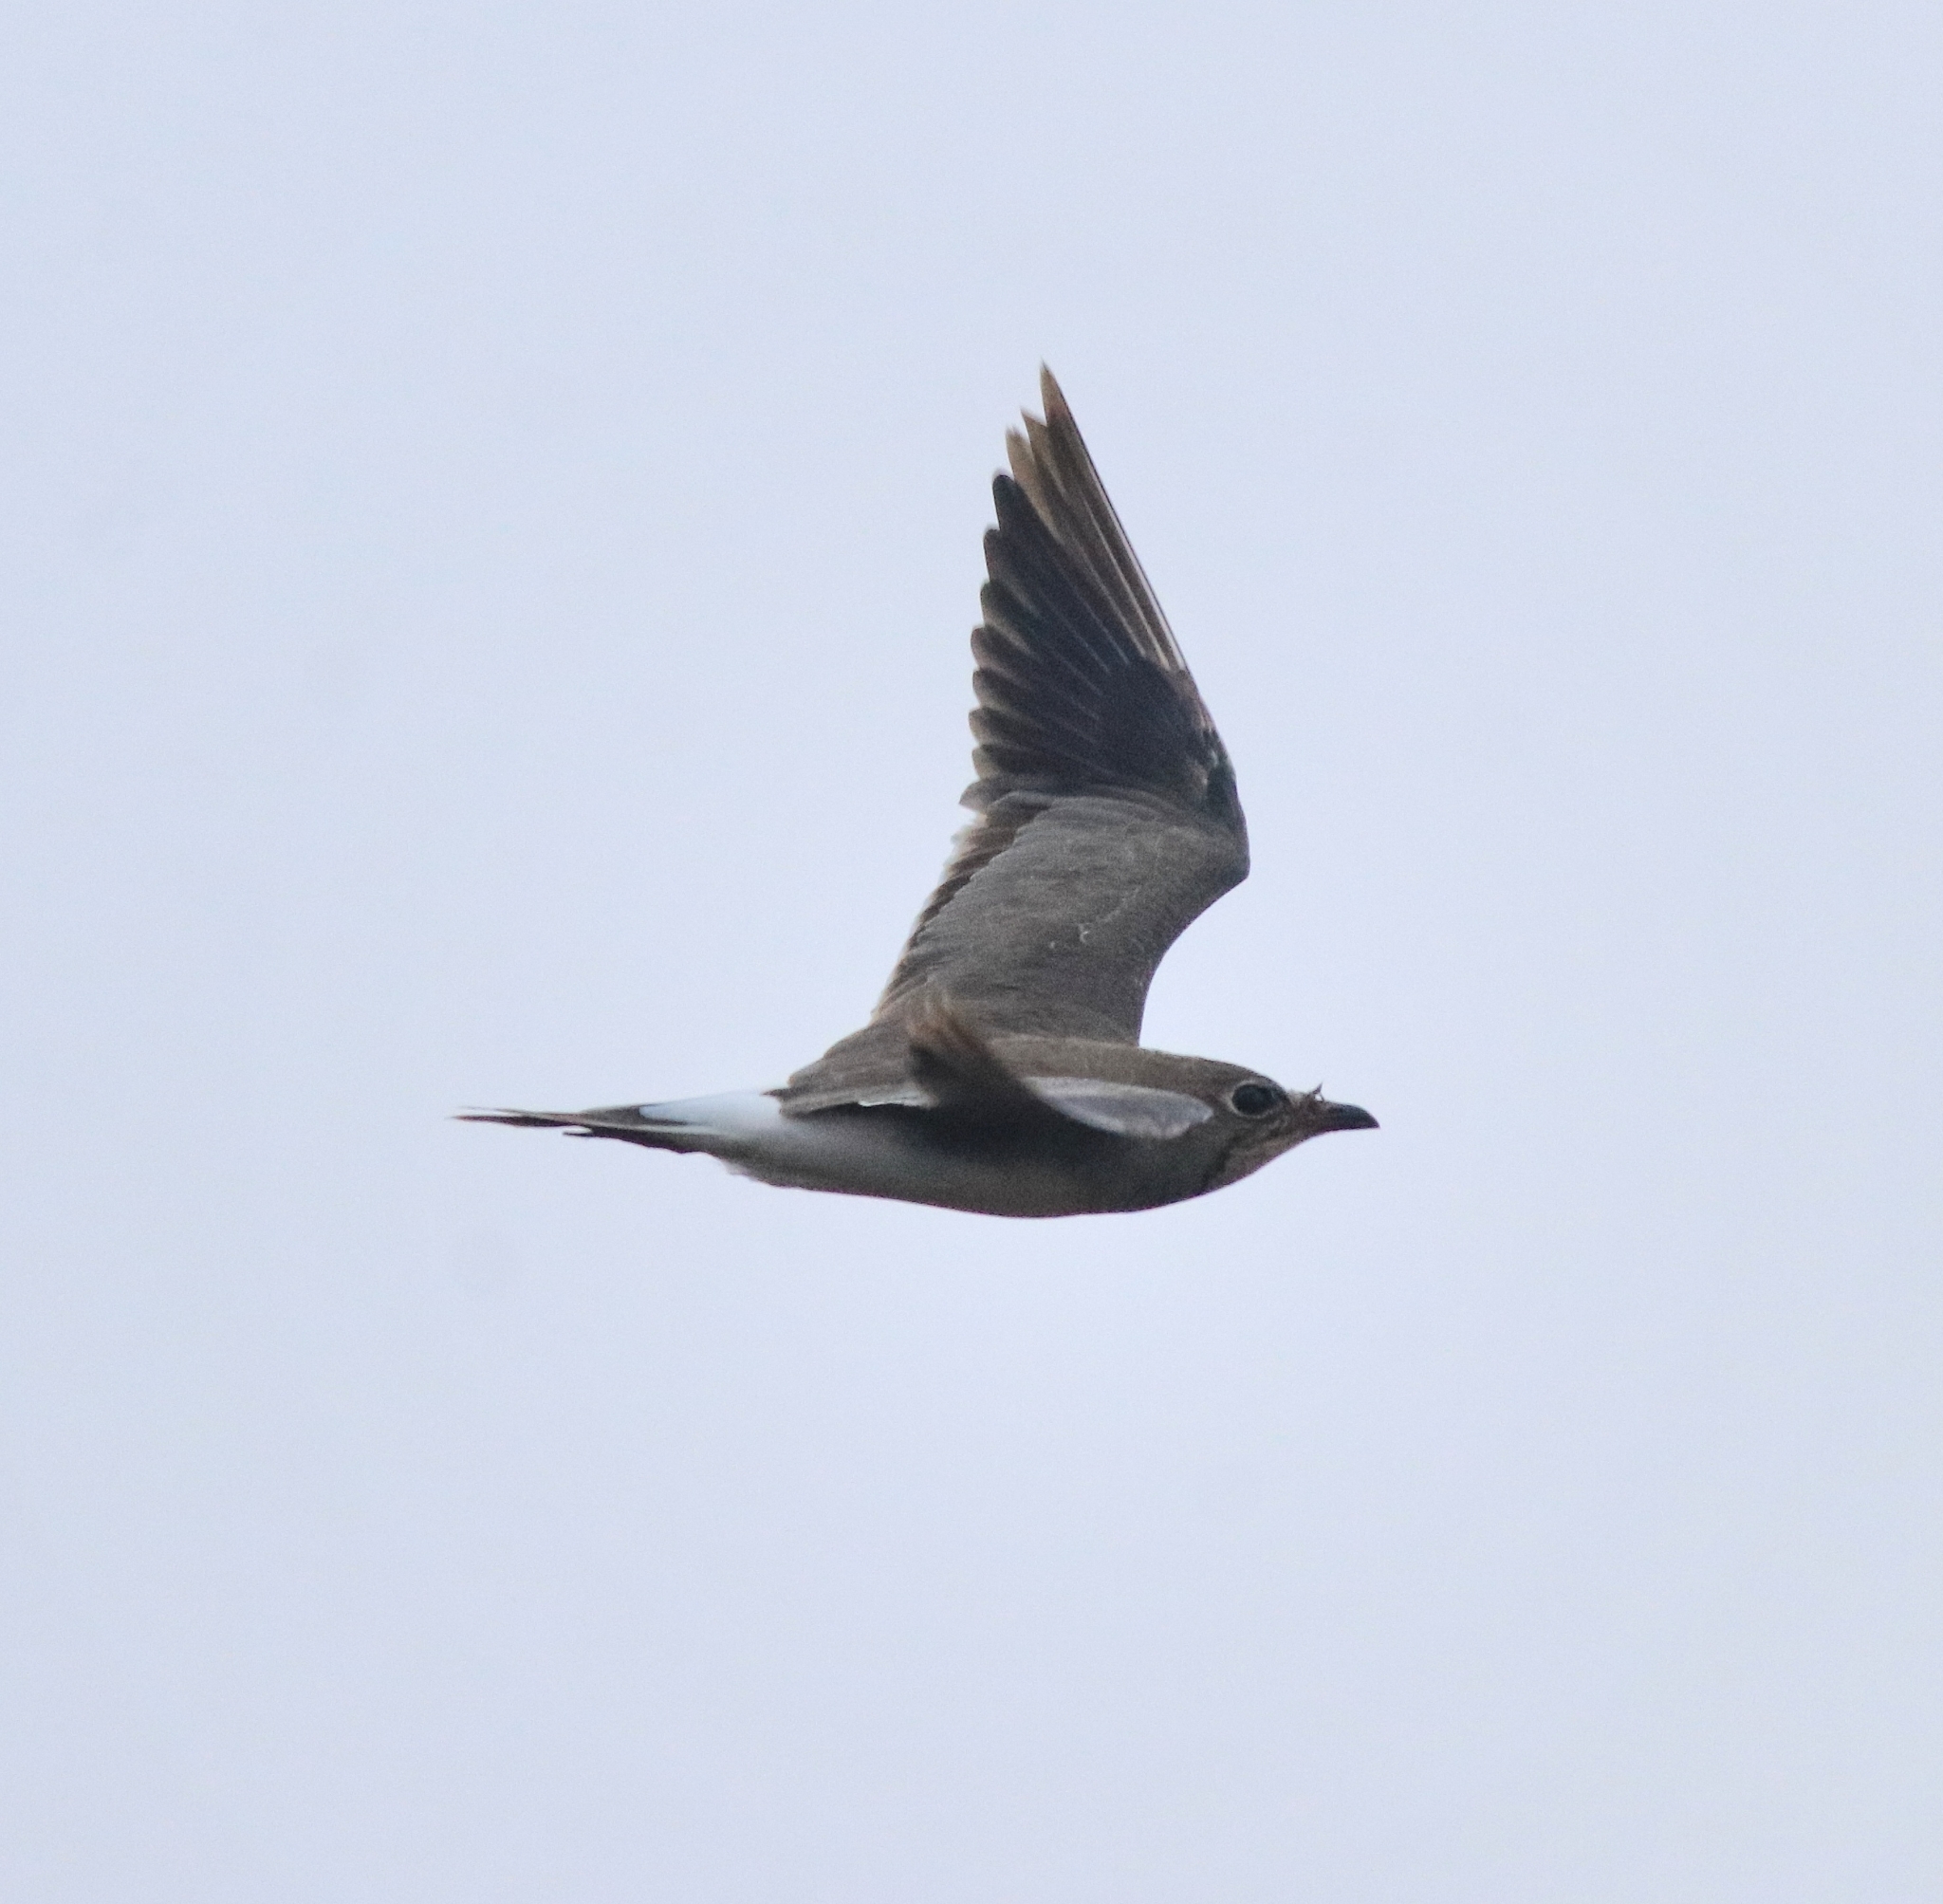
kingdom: Animalia
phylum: Chordata
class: Aves
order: Charadriiformes
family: Glareolidae
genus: Glareola
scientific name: Glareola pratincola
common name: Collared pratincole
